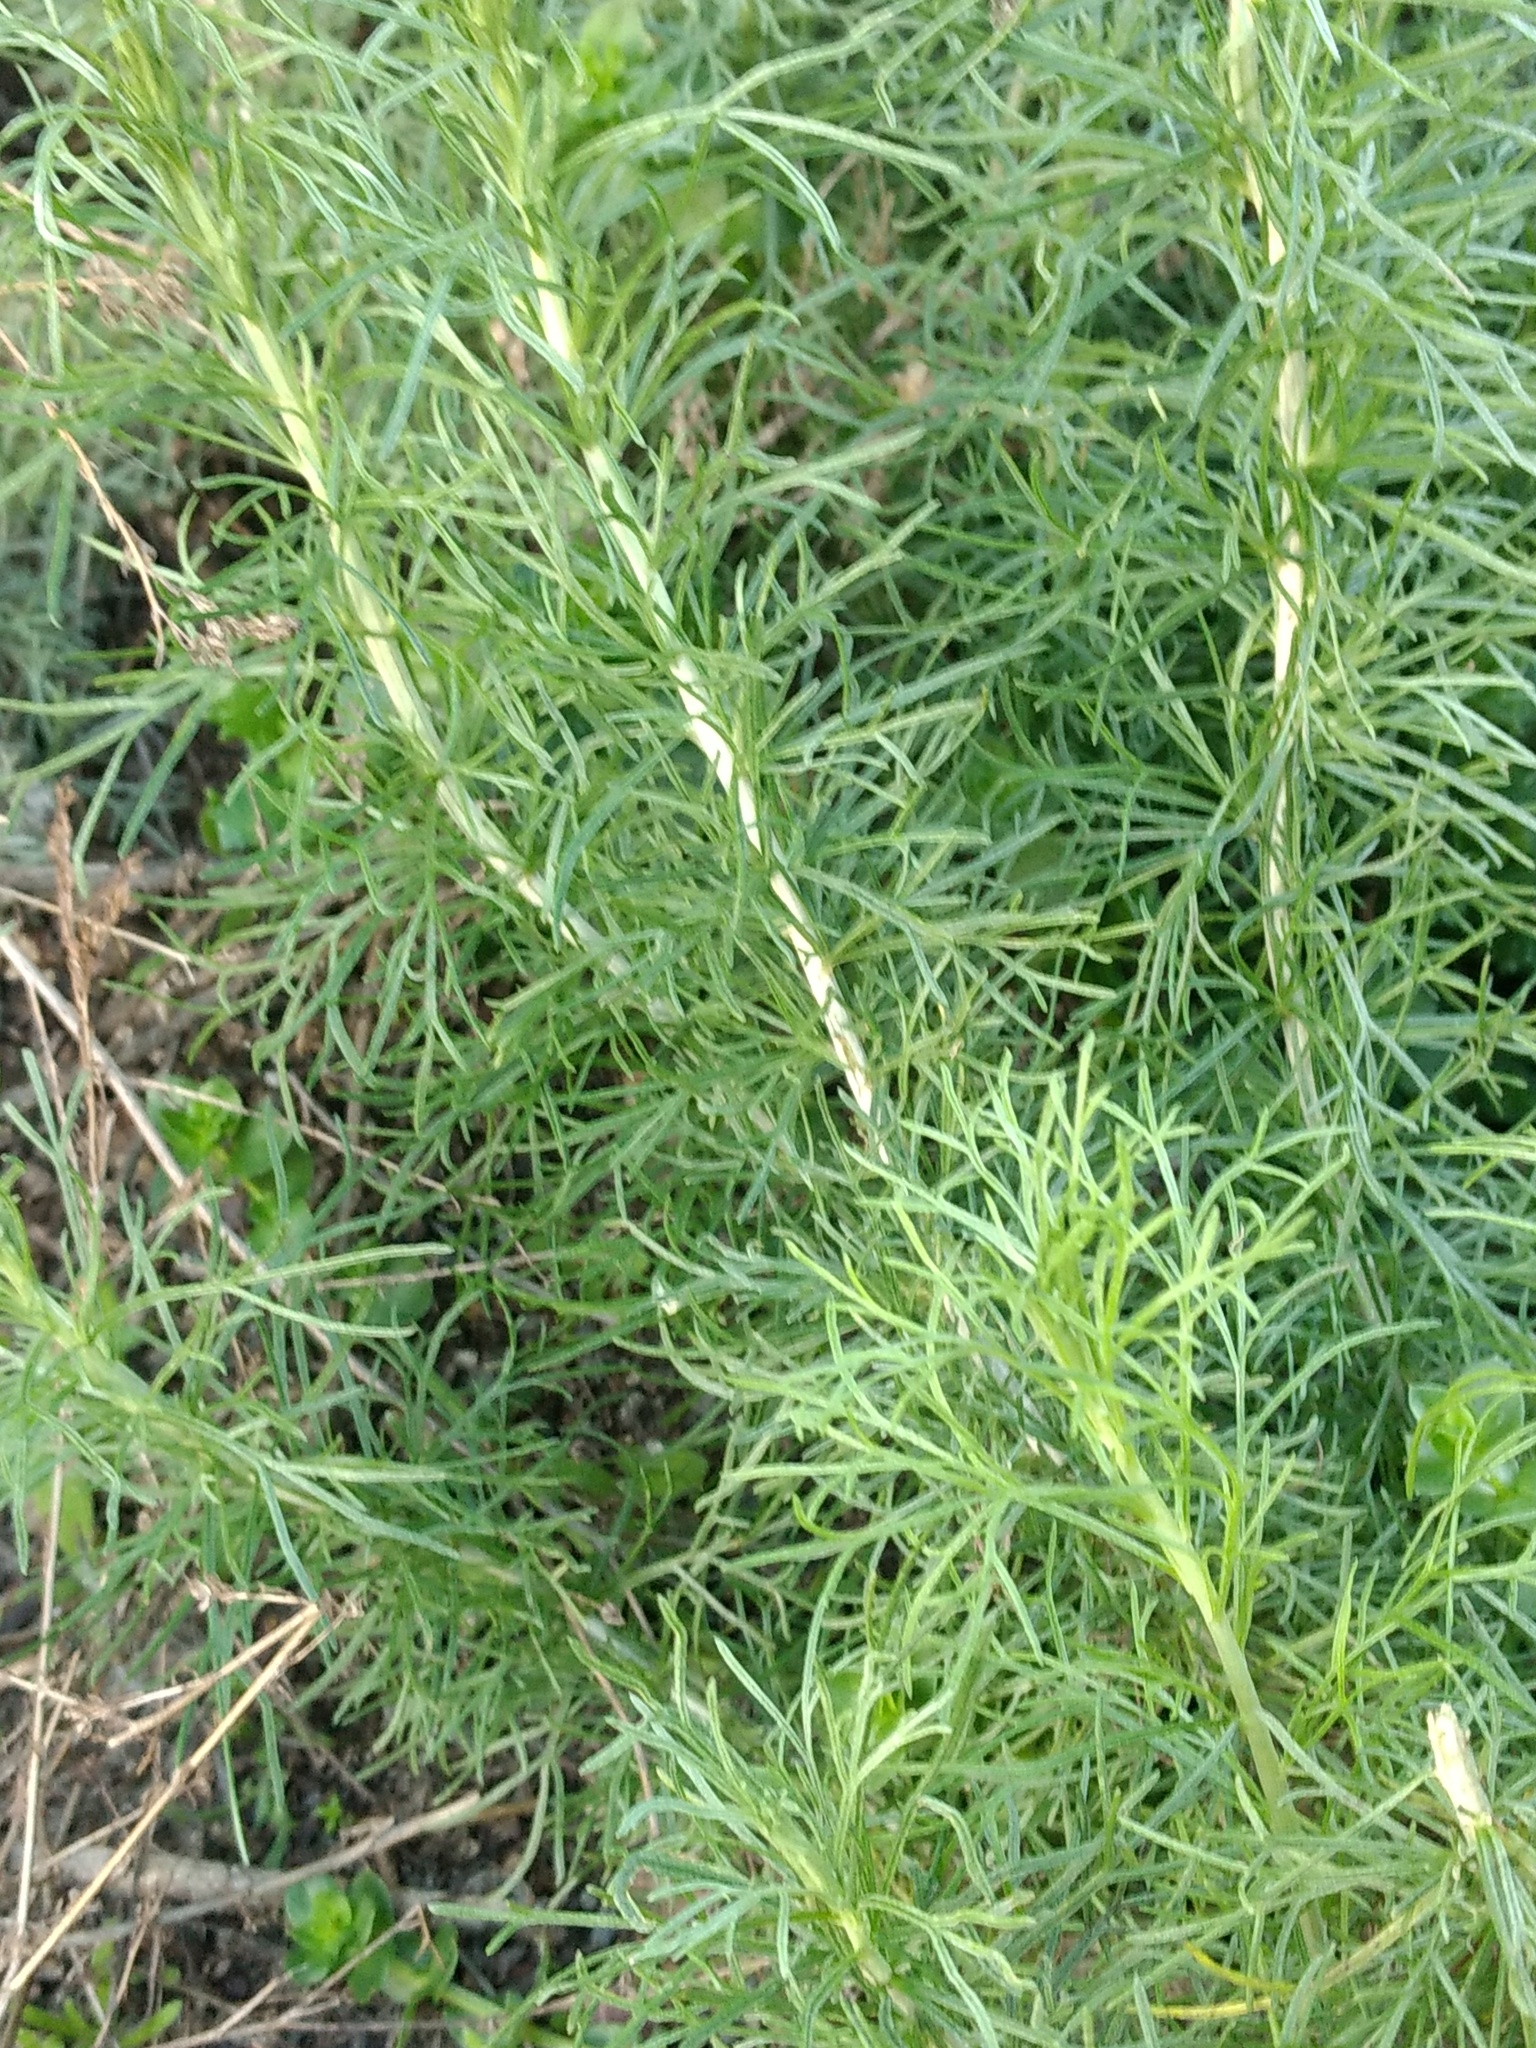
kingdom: Plantae
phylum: Tracheophyta
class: Magnoliopsida
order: Asterales
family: Asteraceae
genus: Artemisia
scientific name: Artemisia californica
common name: California sagebrush
